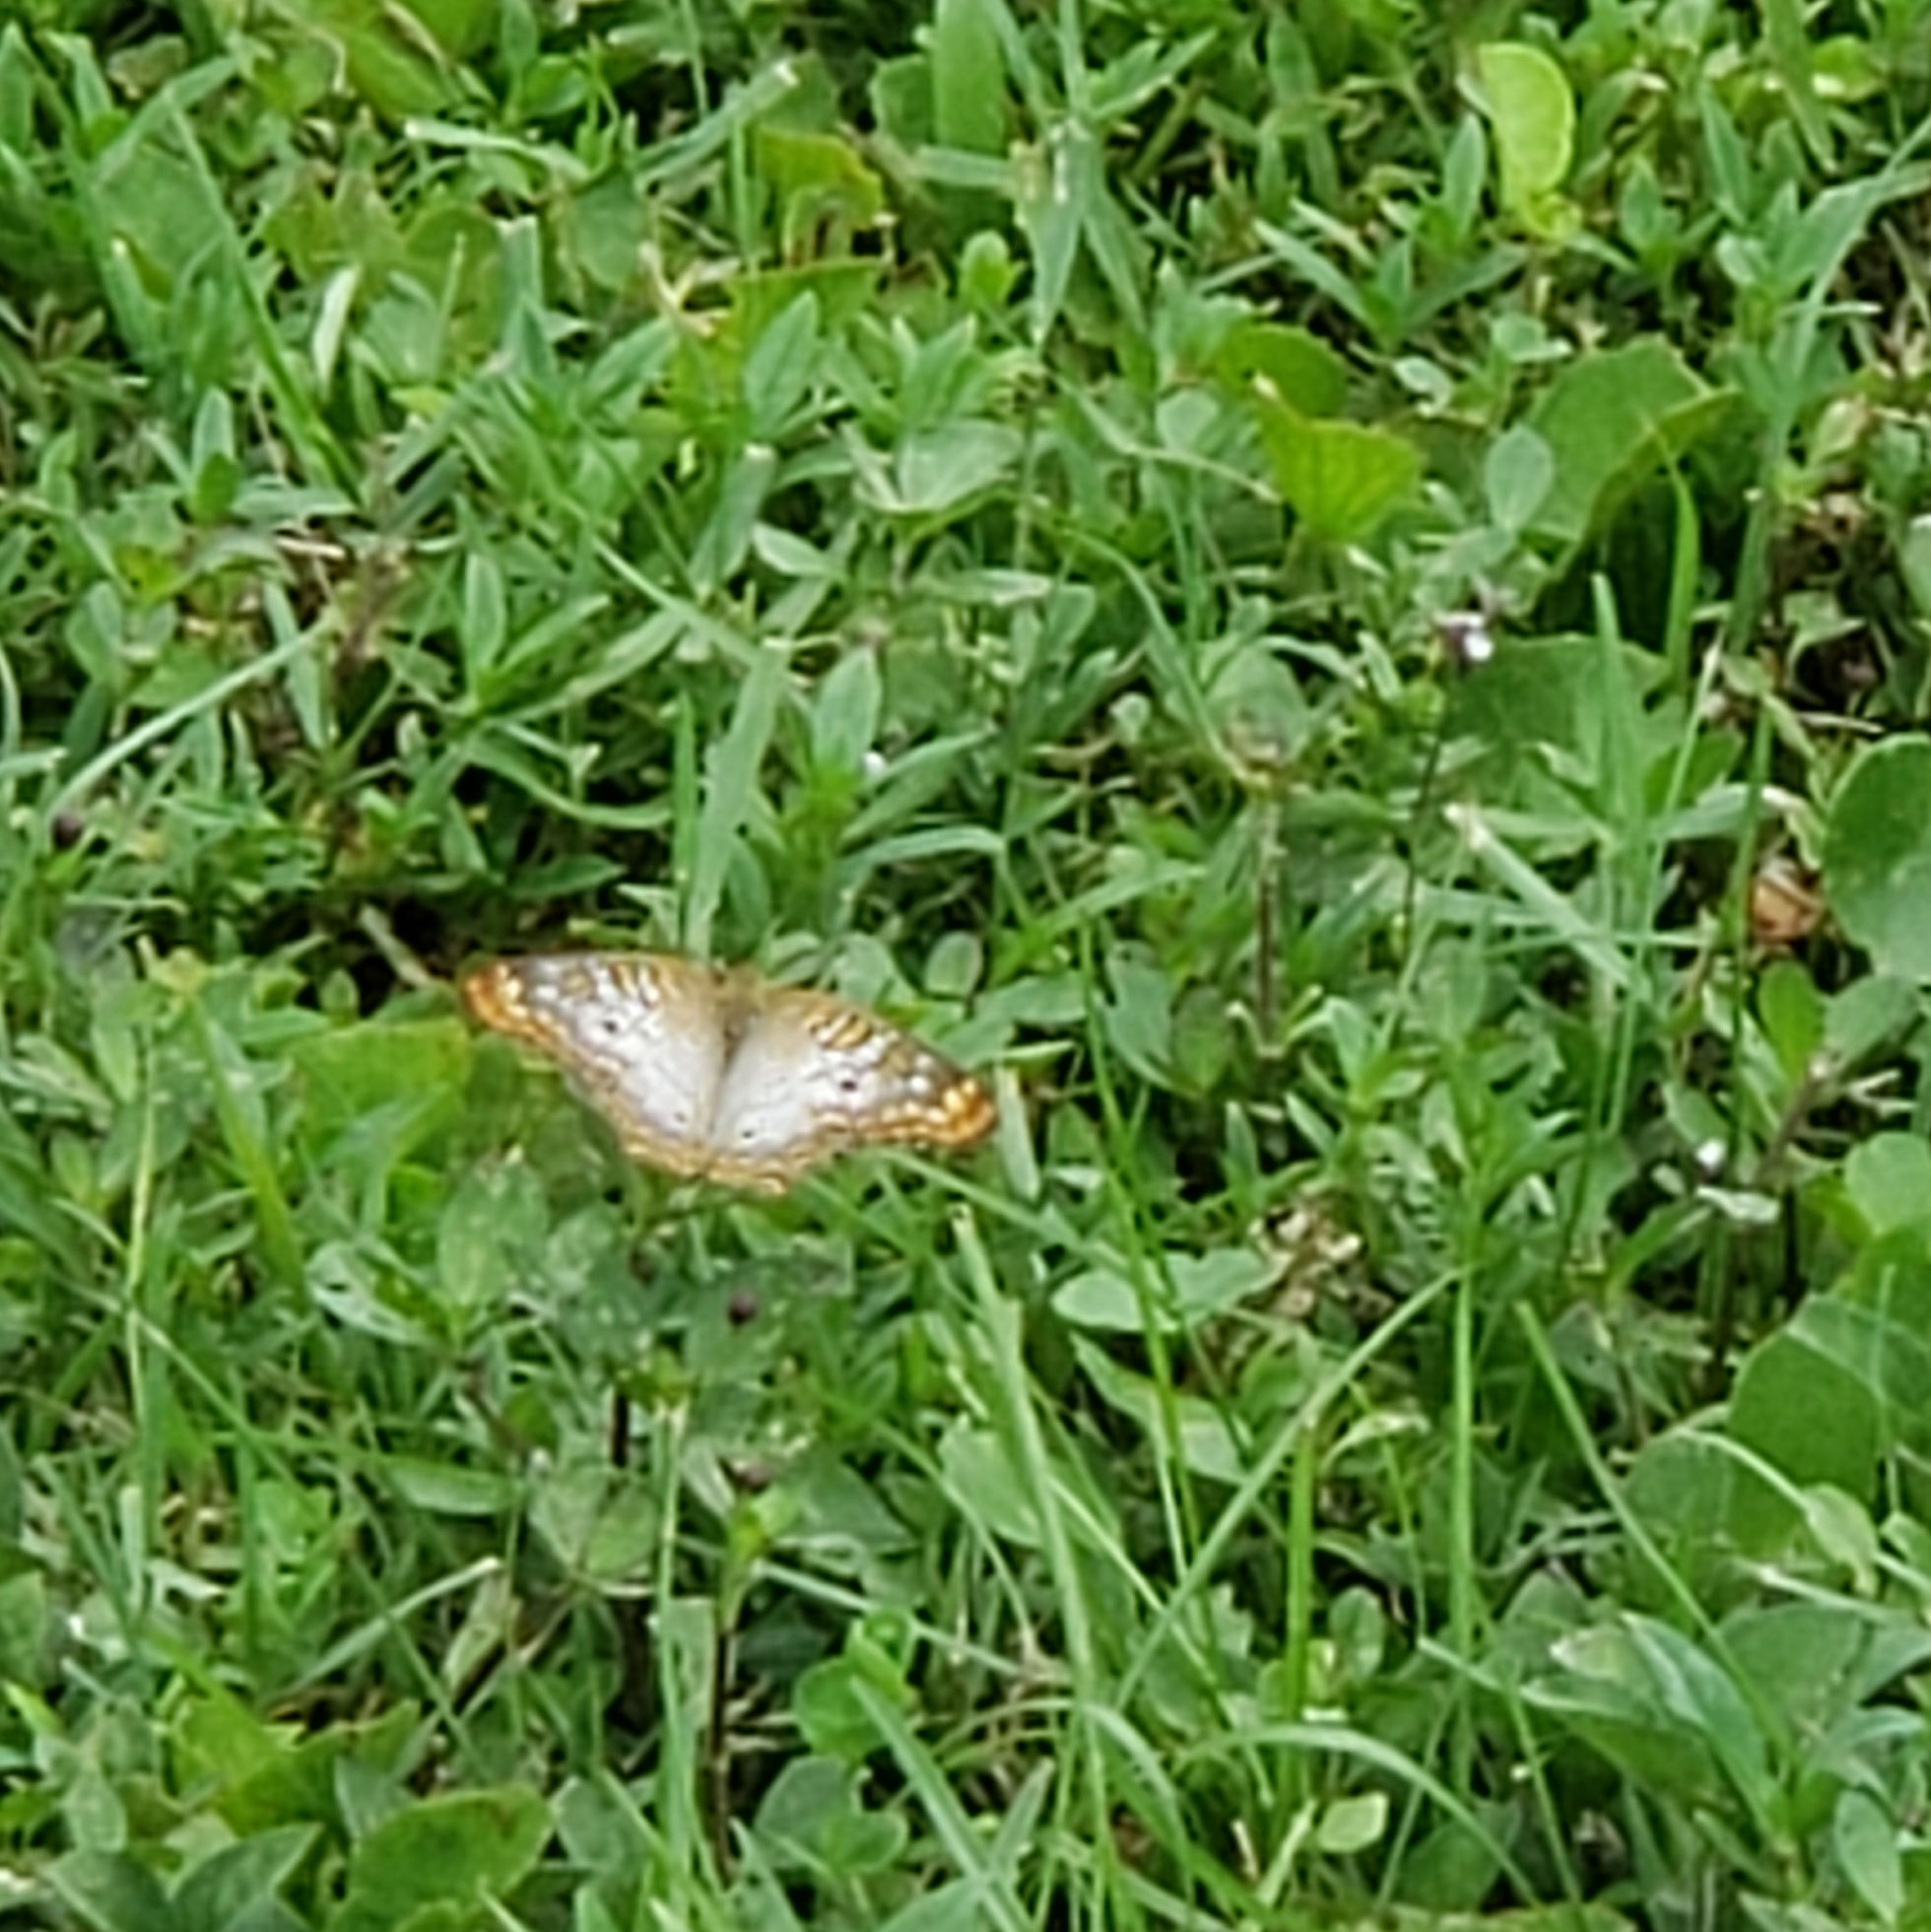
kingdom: Animalia
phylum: Arthropoda
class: Insecta
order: Lepidoptera
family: Nymphalidae
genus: Anartia
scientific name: Anartia jatrophae
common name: White peacock
